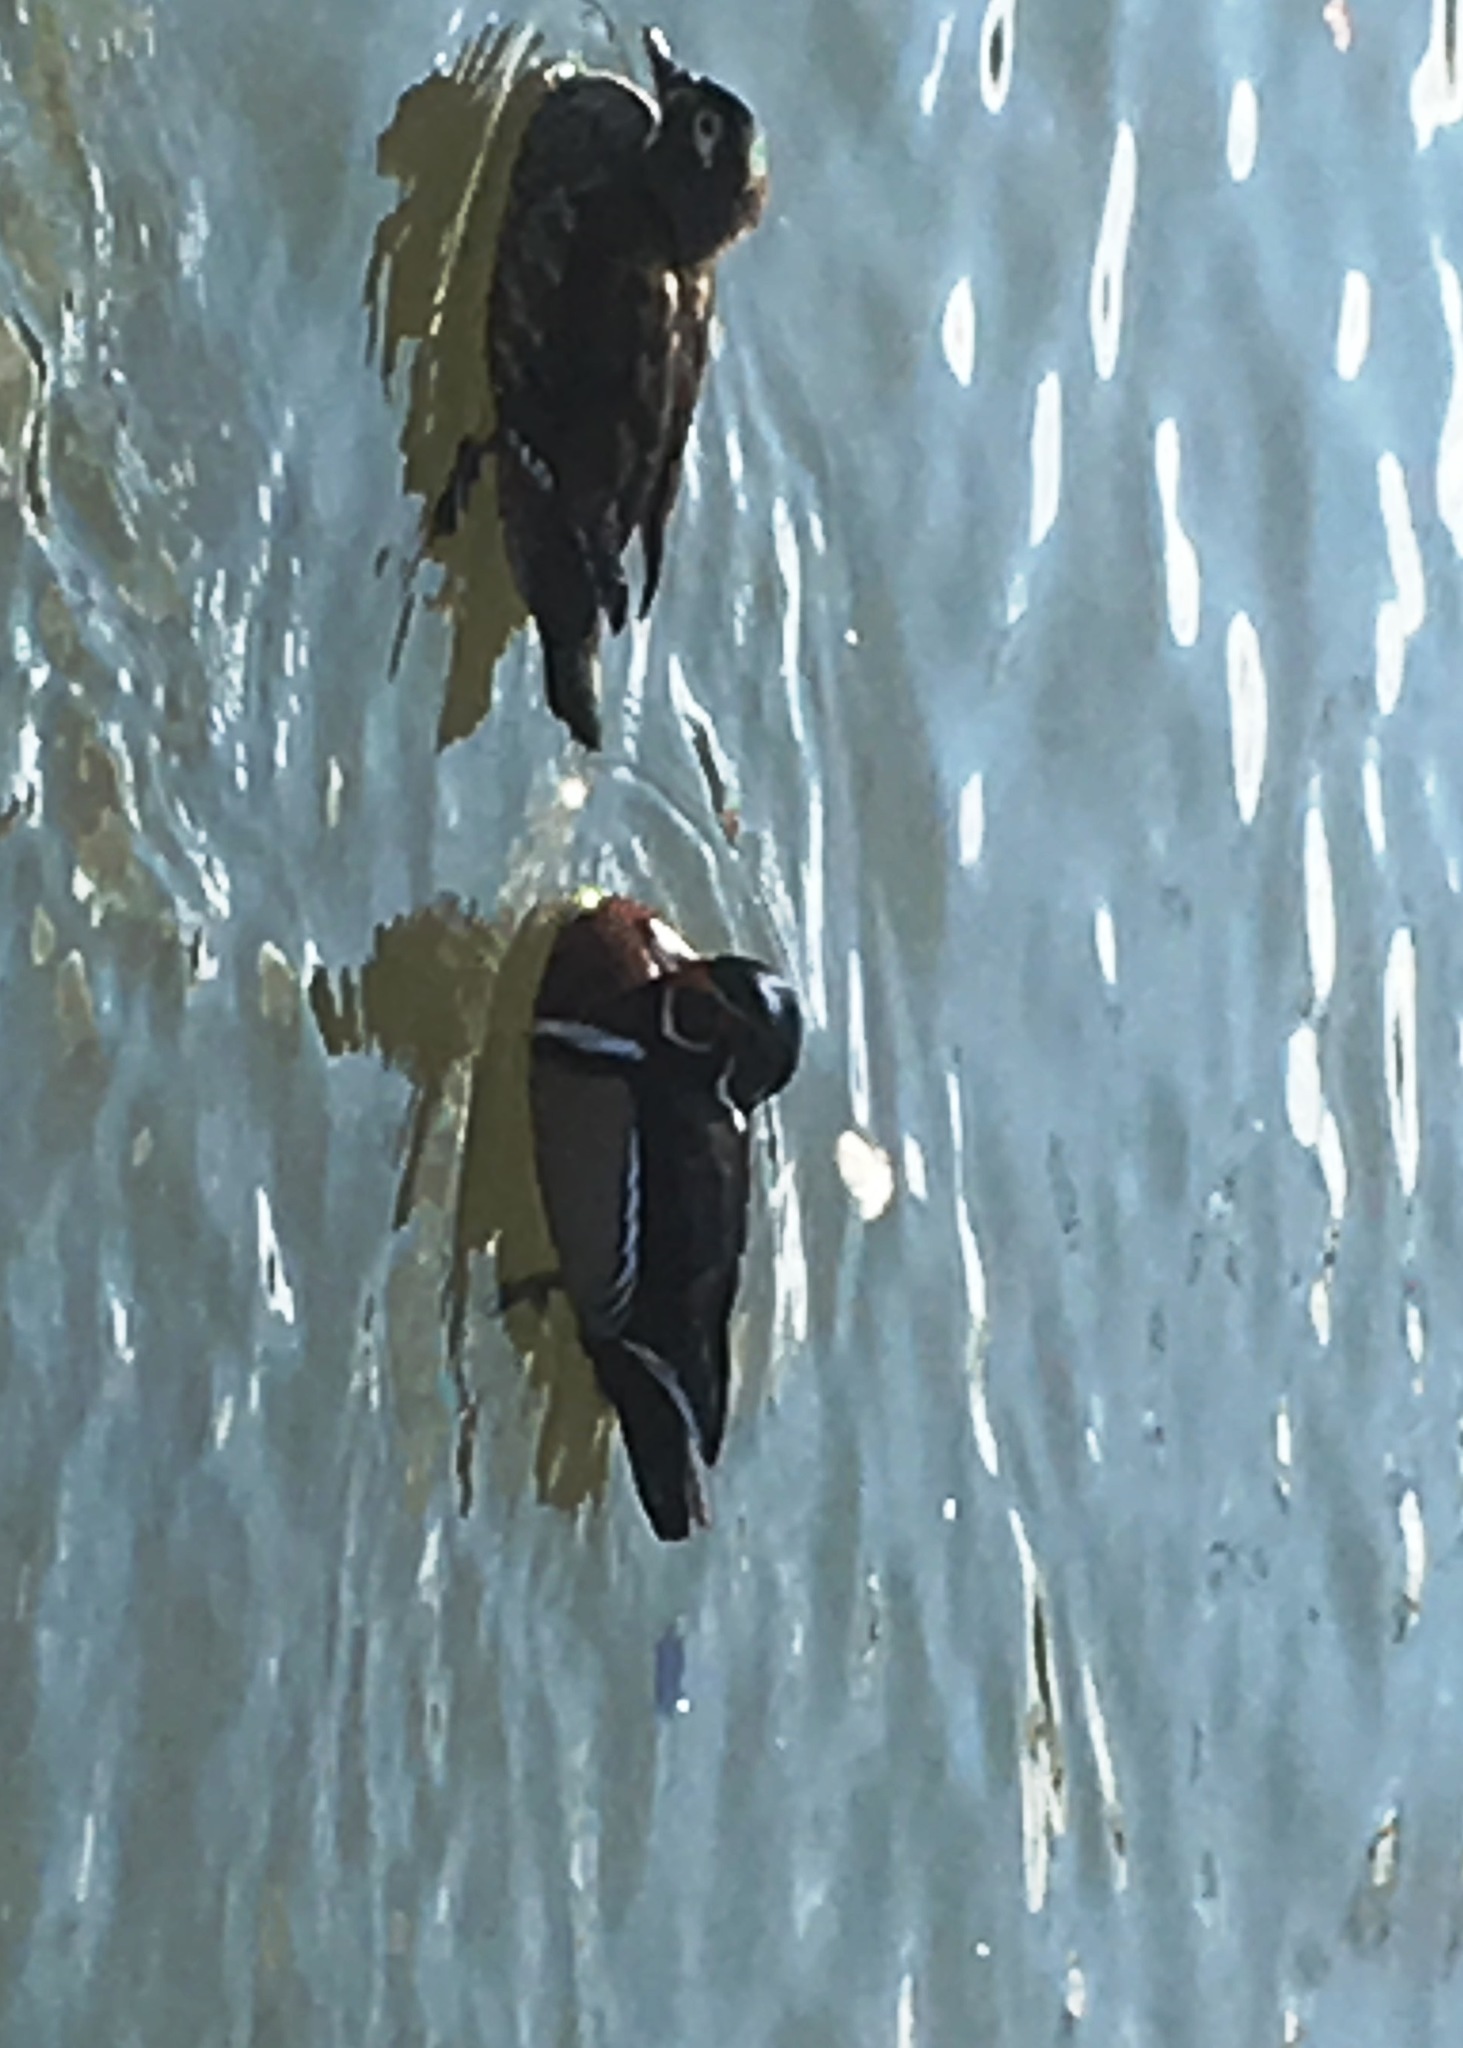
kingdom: Animalia
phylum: Chordata
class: Aves
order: Anseriformes
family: Anatidae
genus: Aix
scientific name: Aix sponsa
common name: Wood duck
